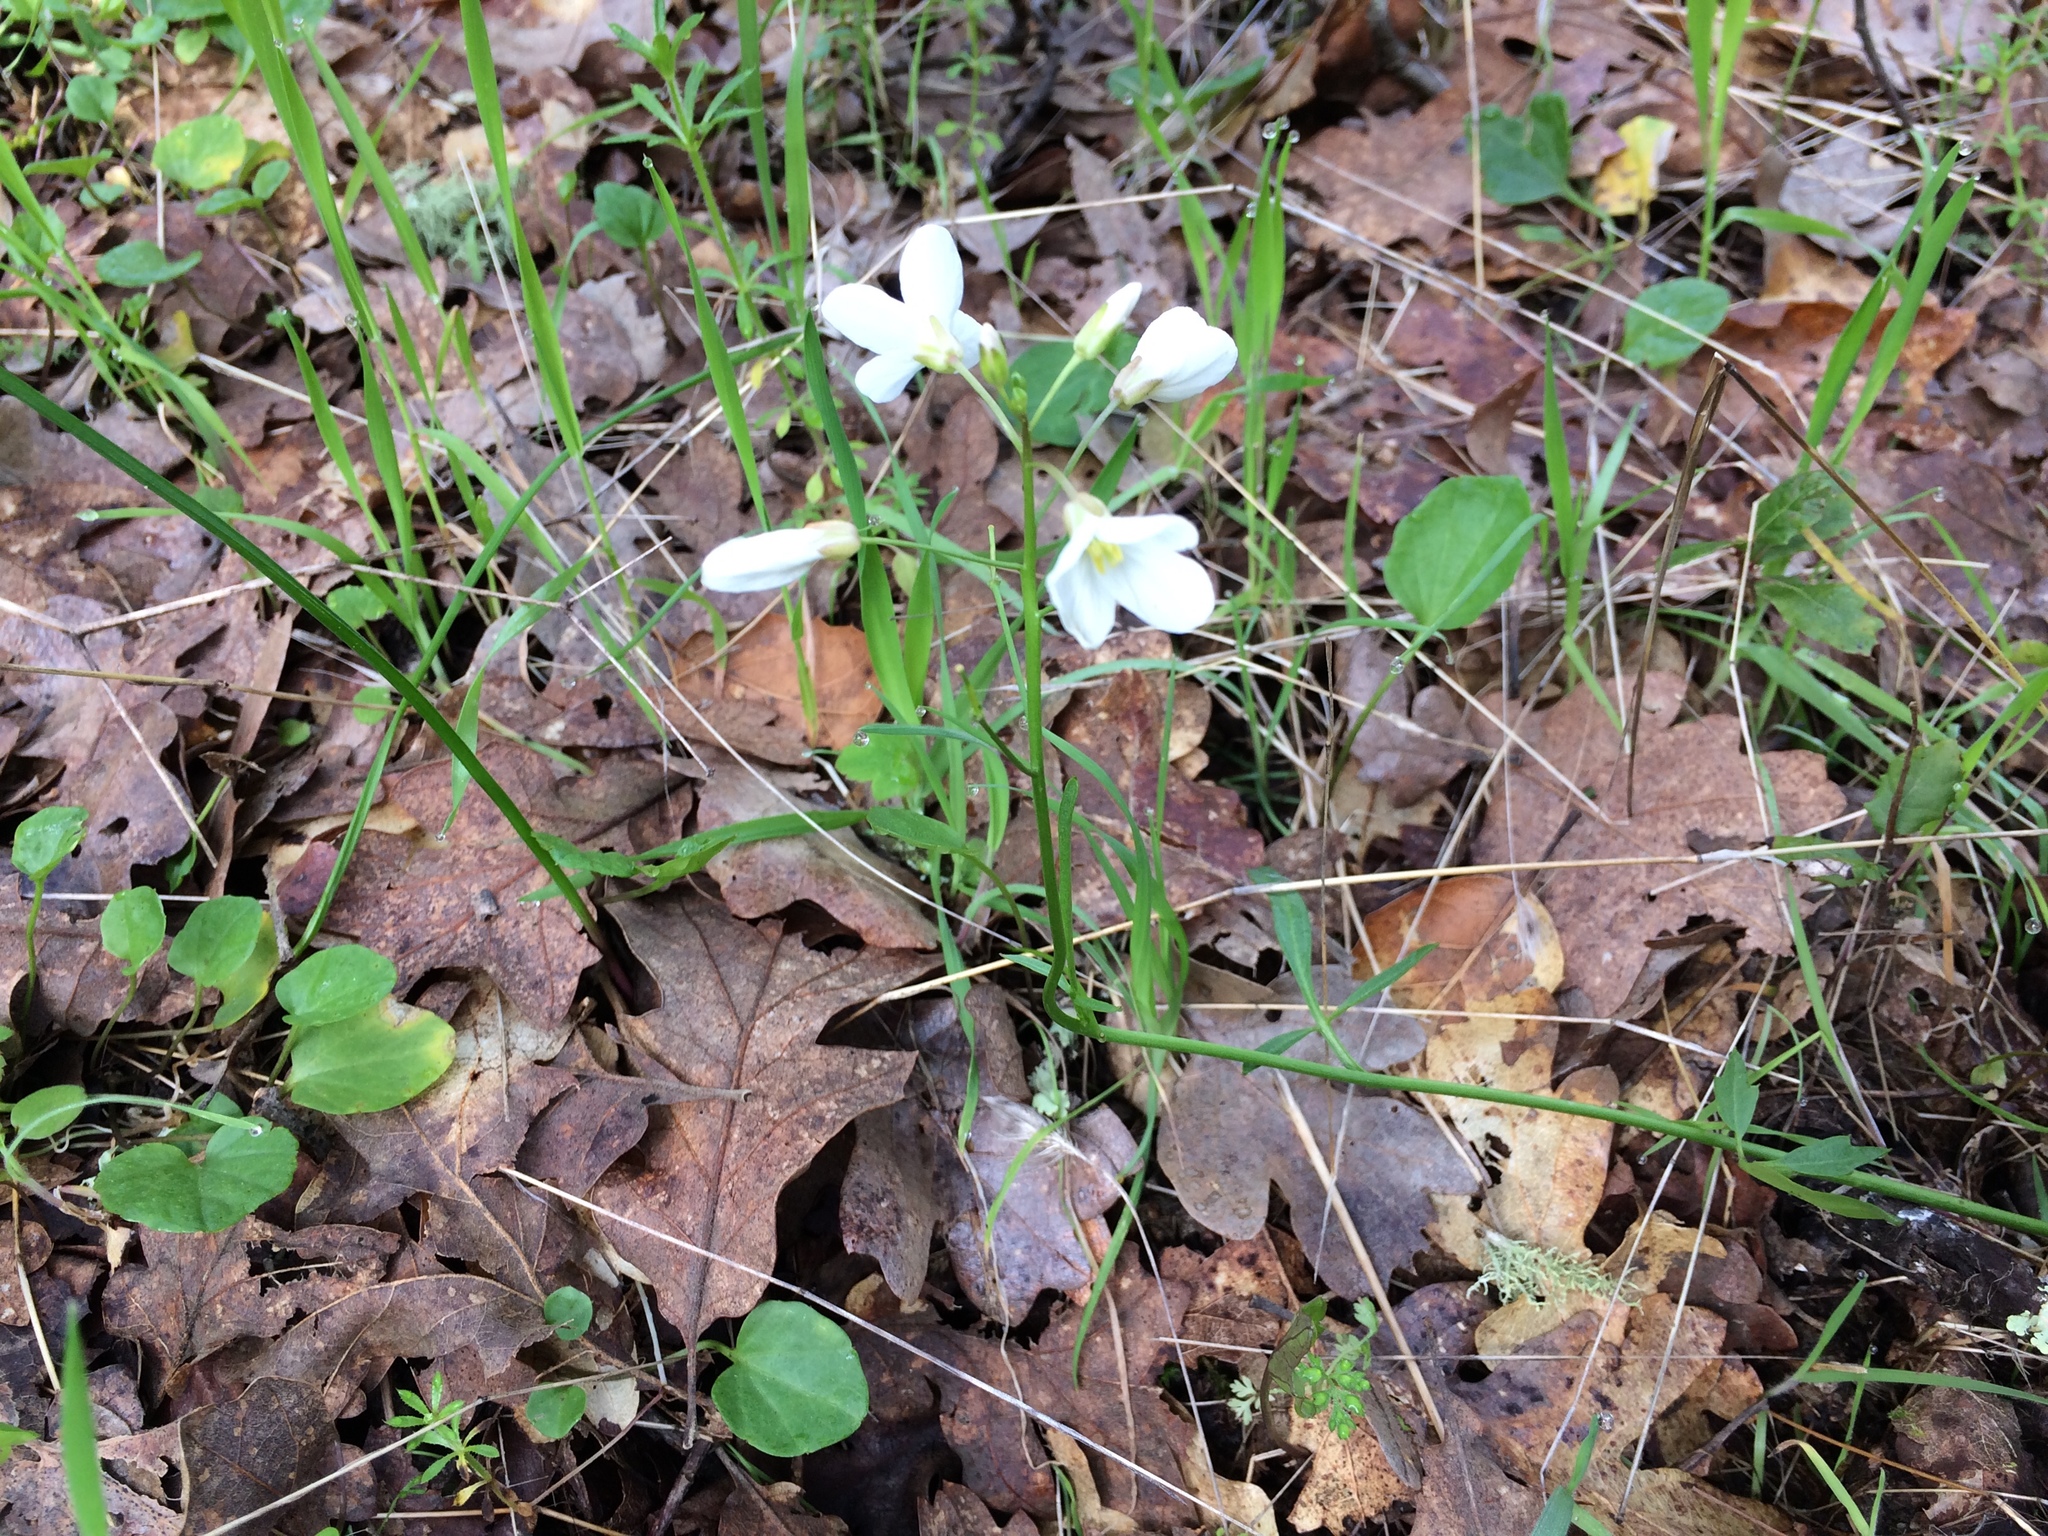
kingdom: Plantae
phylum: Tracheophyta
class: Magnoliopsida
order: Brassicales
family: Brassicaceae
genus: Cardamine
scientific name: Cardamine californica
